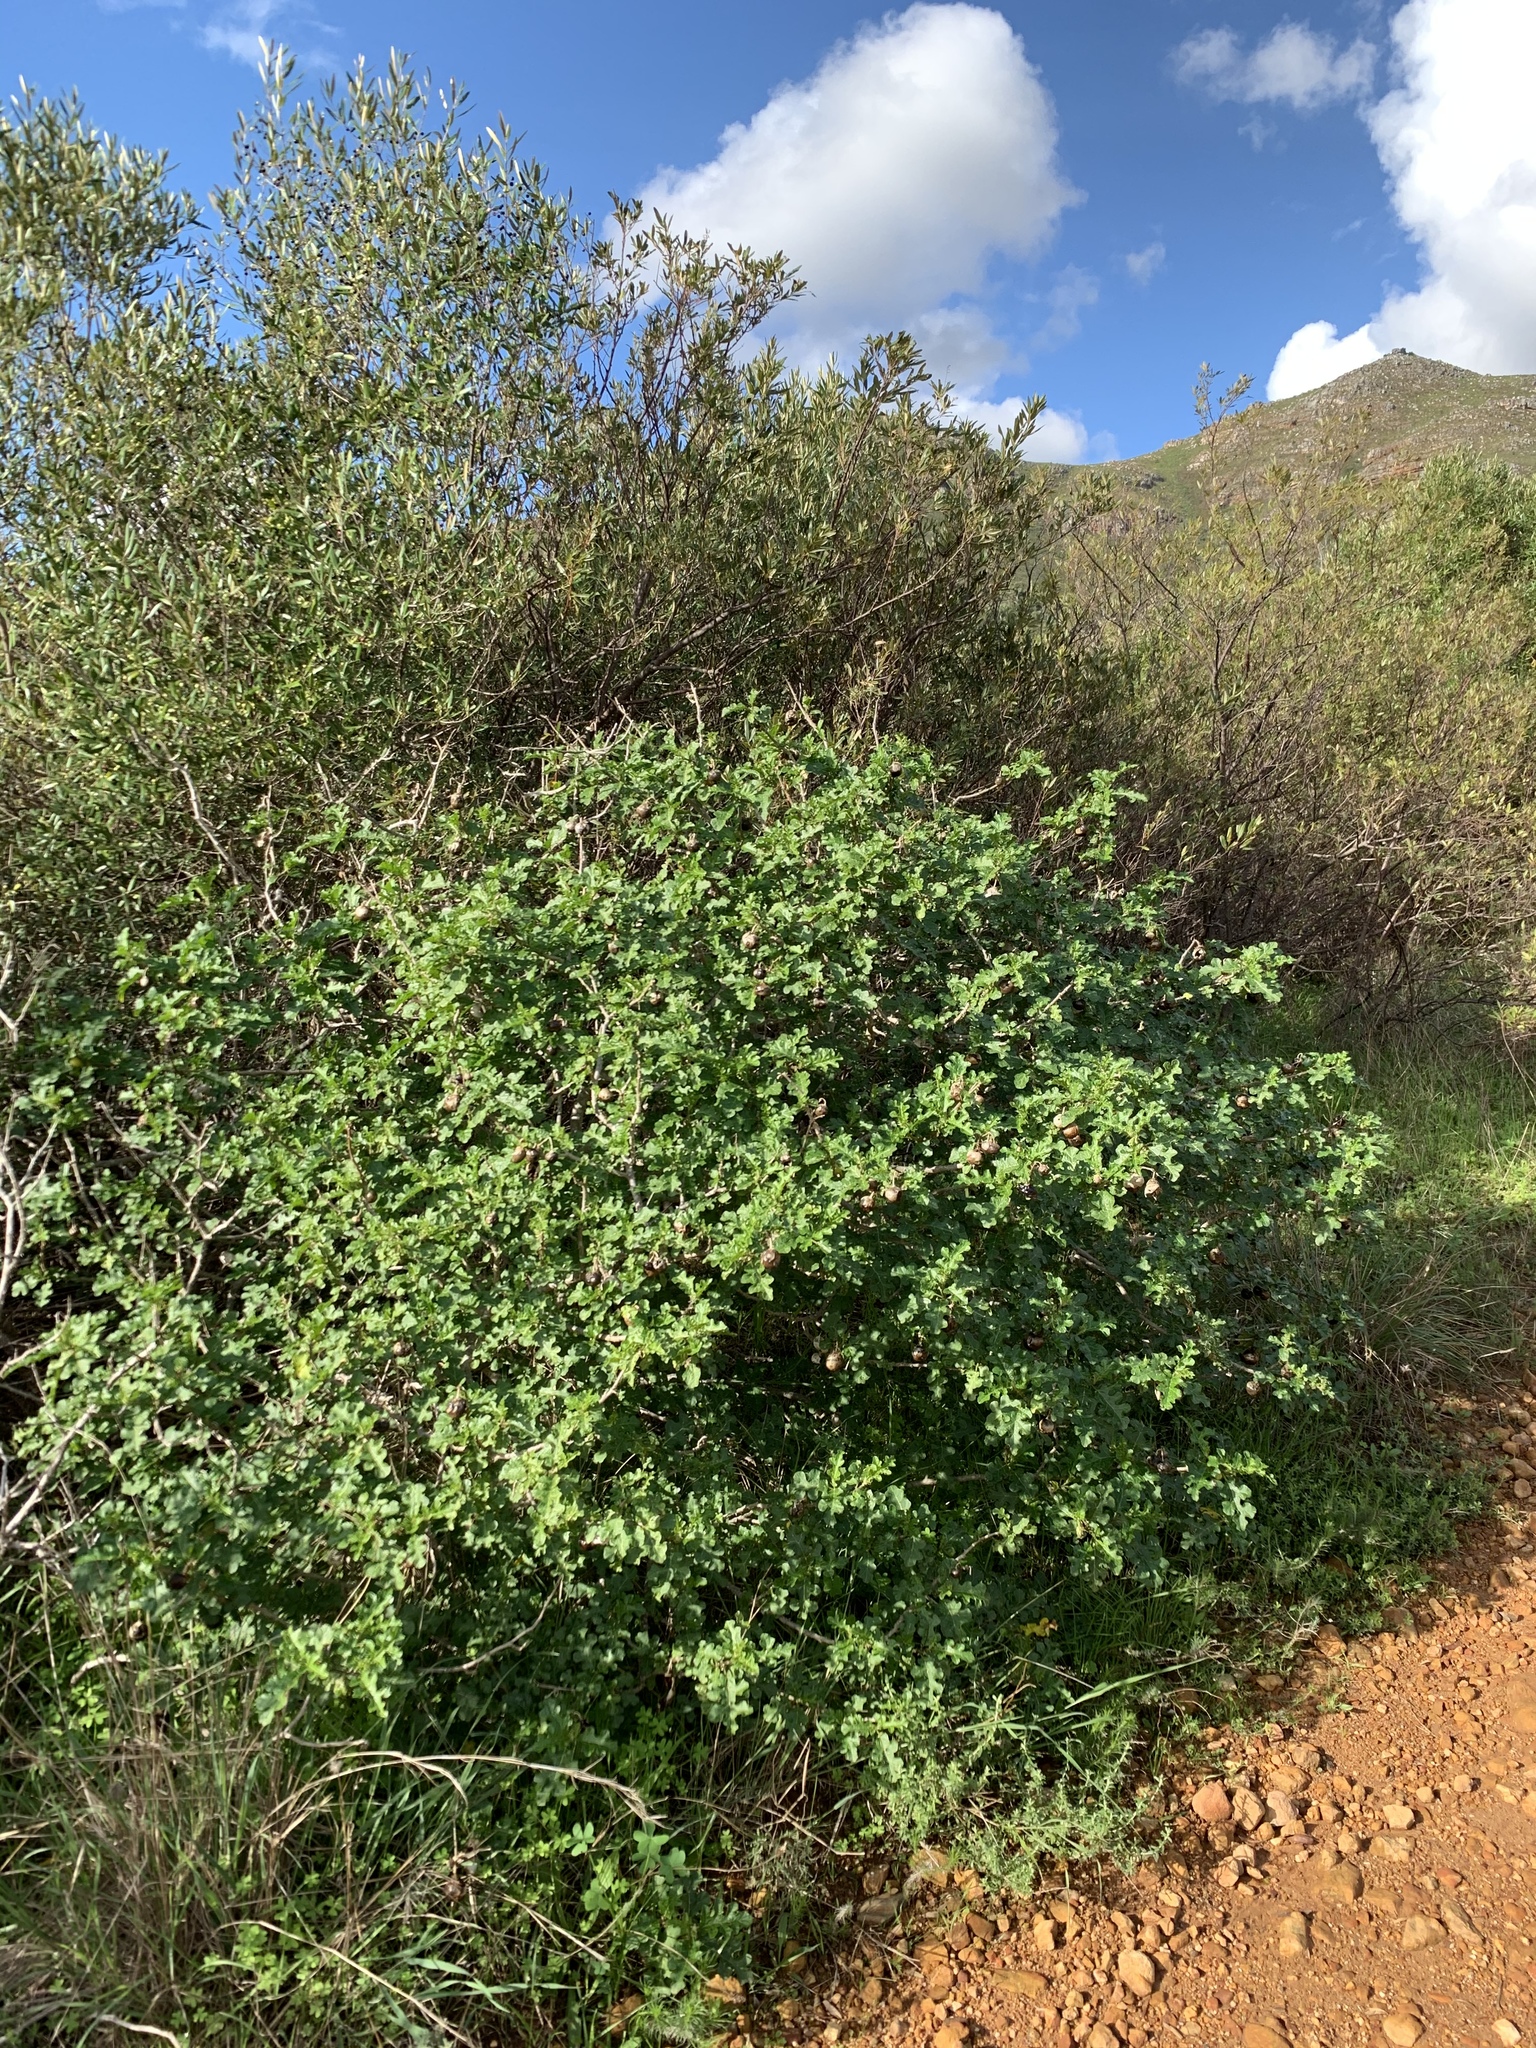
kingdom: Plantae
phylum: Tracheophyta
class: Magnoliopsida
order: Solanales
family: Solanaceae
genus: Solanum
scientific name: Solanum linnaeanum
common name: Nightshade
